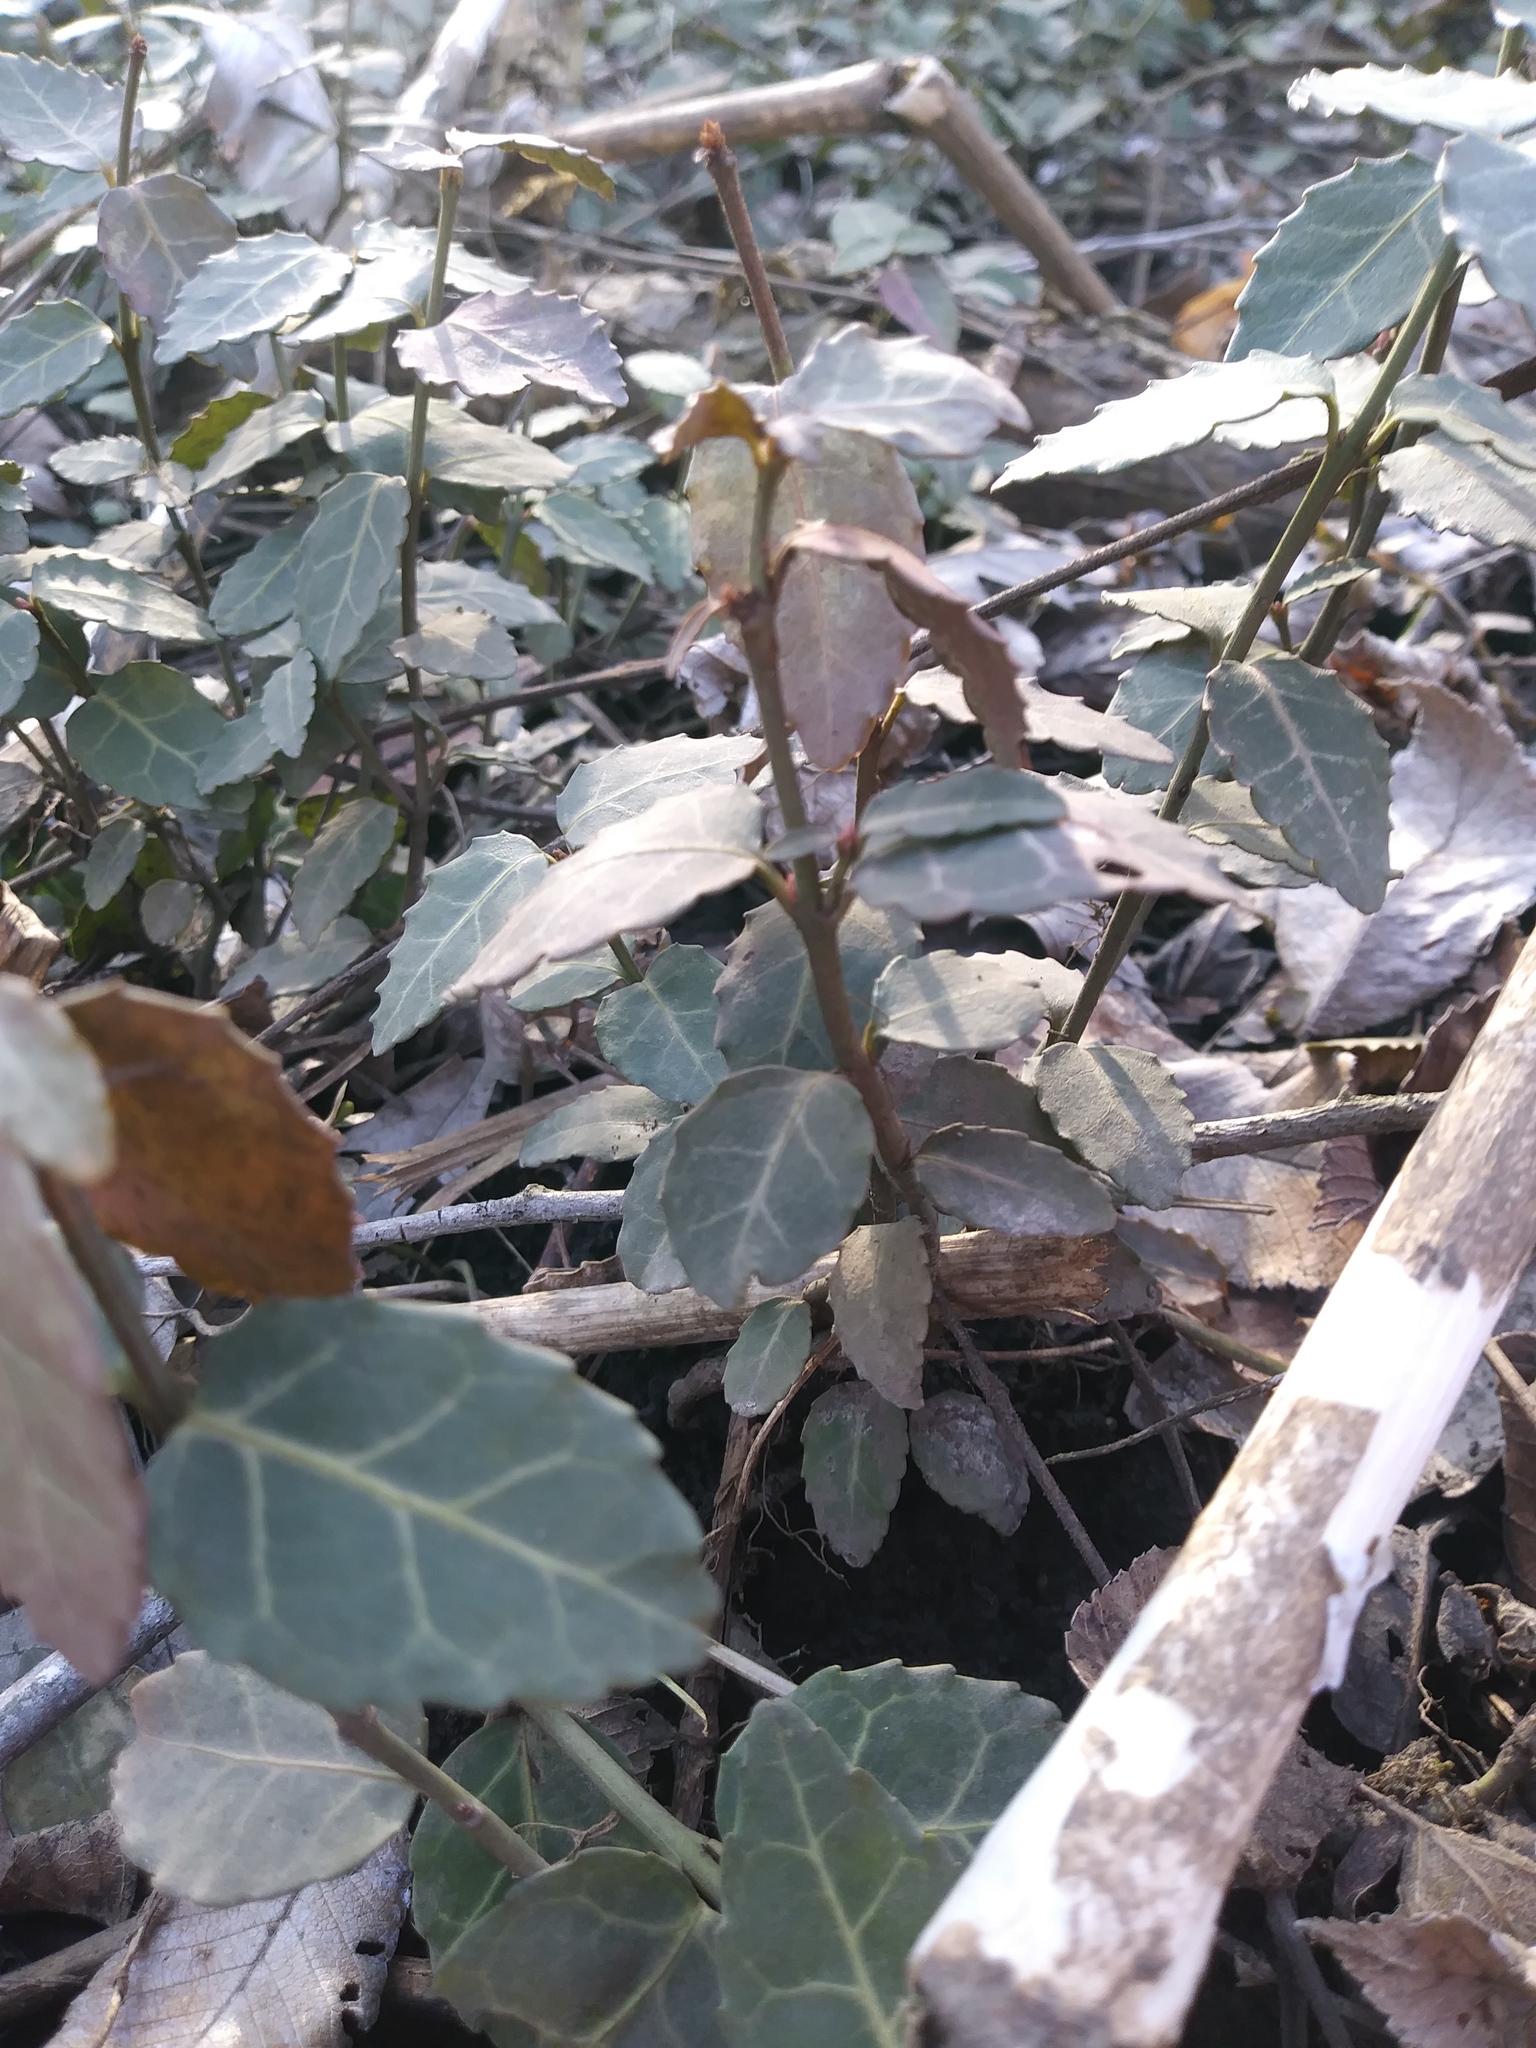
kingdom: Plantae
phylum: Tracheophyta
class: Magnoliopsida
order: Celastrales
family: Celastraceae
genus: Euonymus
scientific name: Euonymus fortunei
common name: Climbing euonymus
